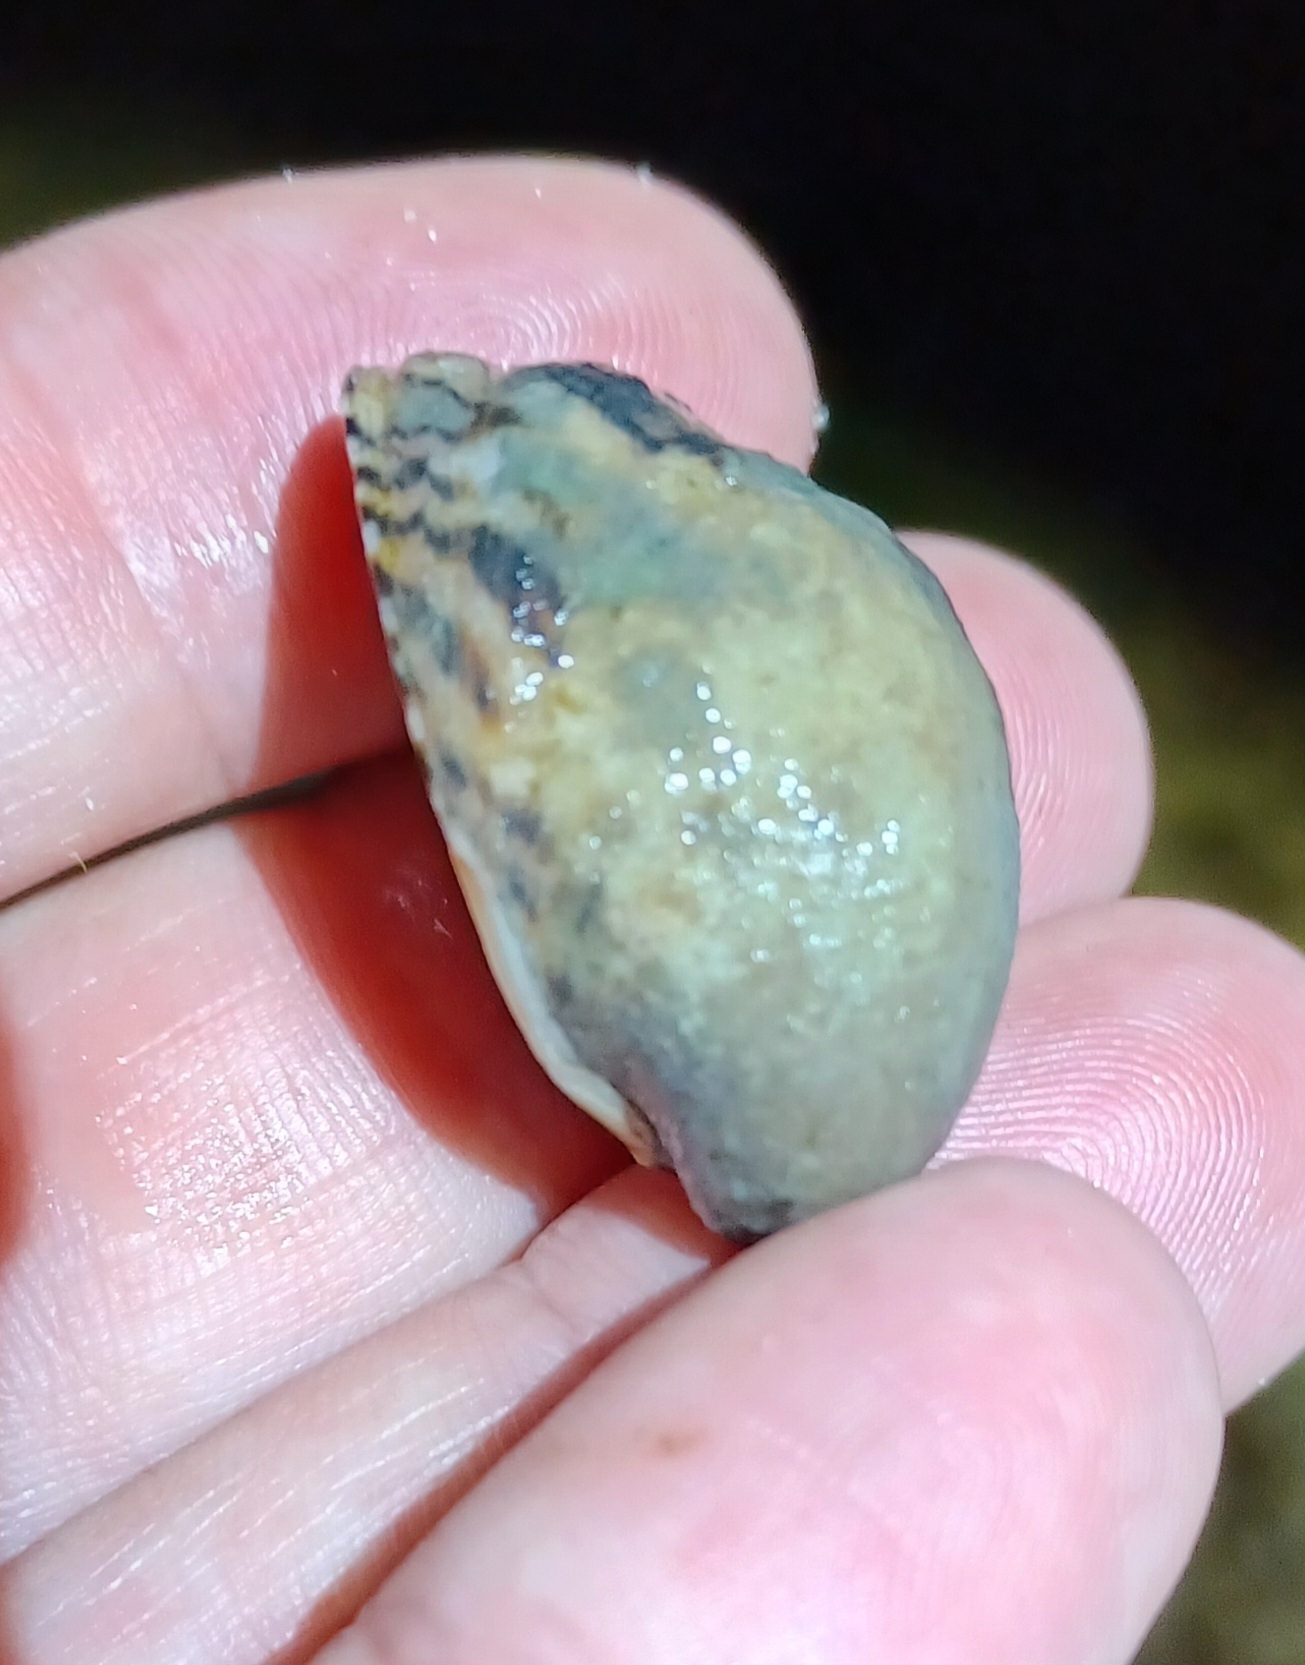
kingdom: Animalia
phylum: Mollusca
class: Gastropoda
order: Cycloneritida
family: Neritidae
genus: Nerita
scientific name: Nerita albicilla
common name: Blotched nerite
